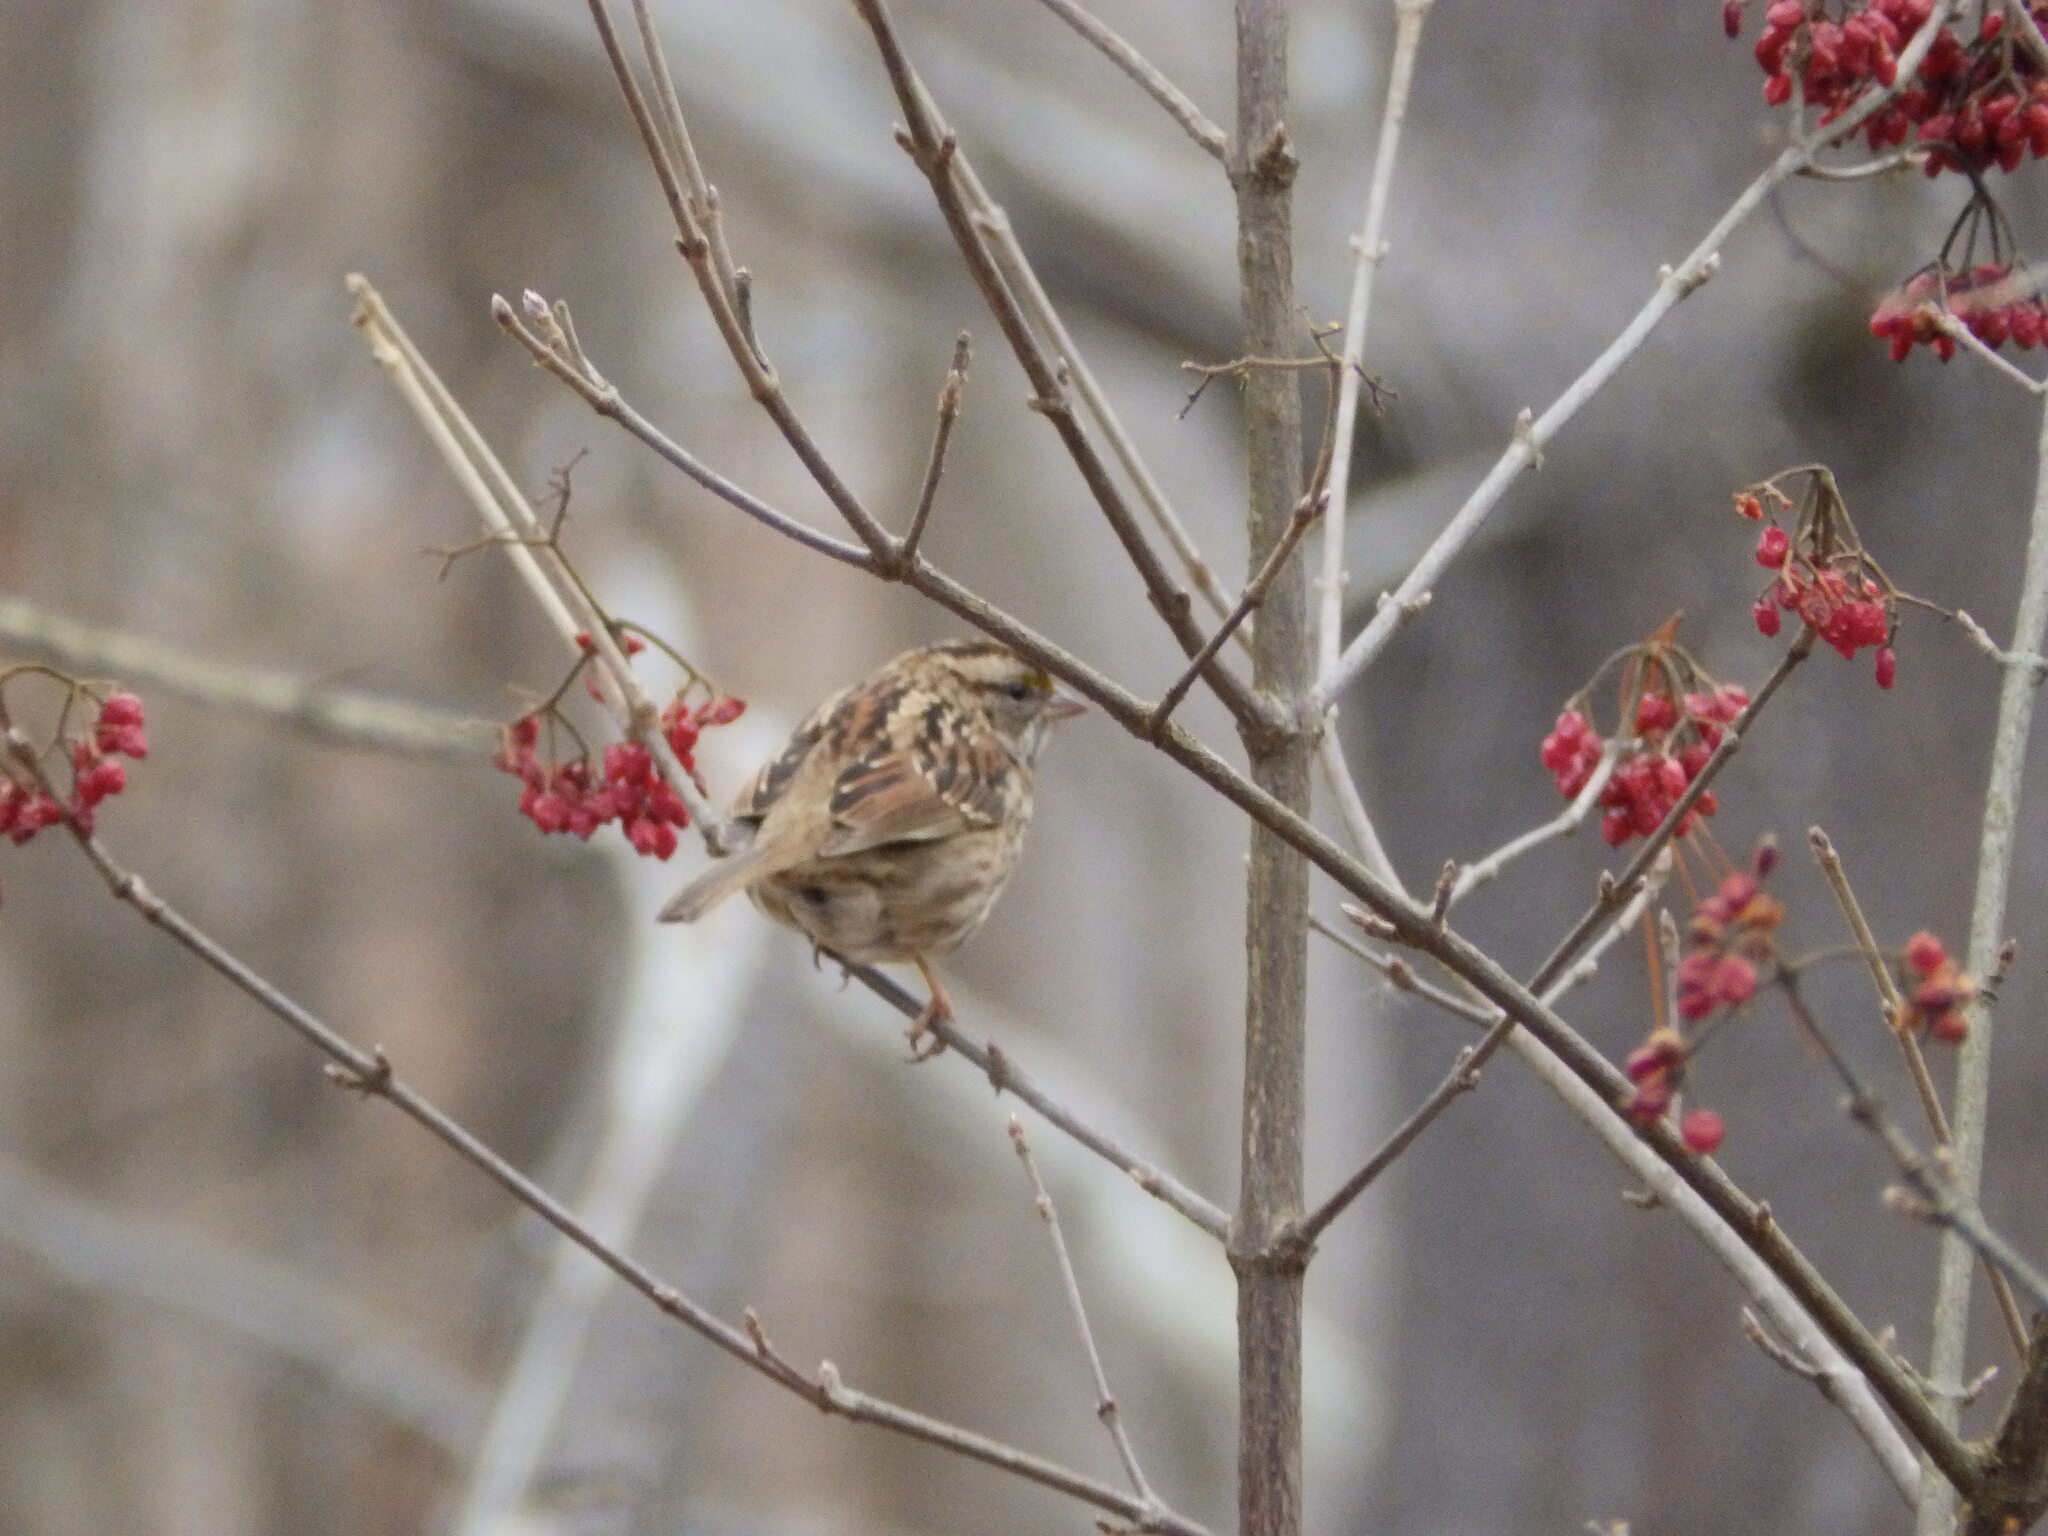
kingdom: Animalia
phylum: Chordata
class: Aves
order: Passeriformes
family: Passerellidae
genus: Zonotrichia
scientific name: Zonotrichia albicollis
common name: White-throated sparrow
